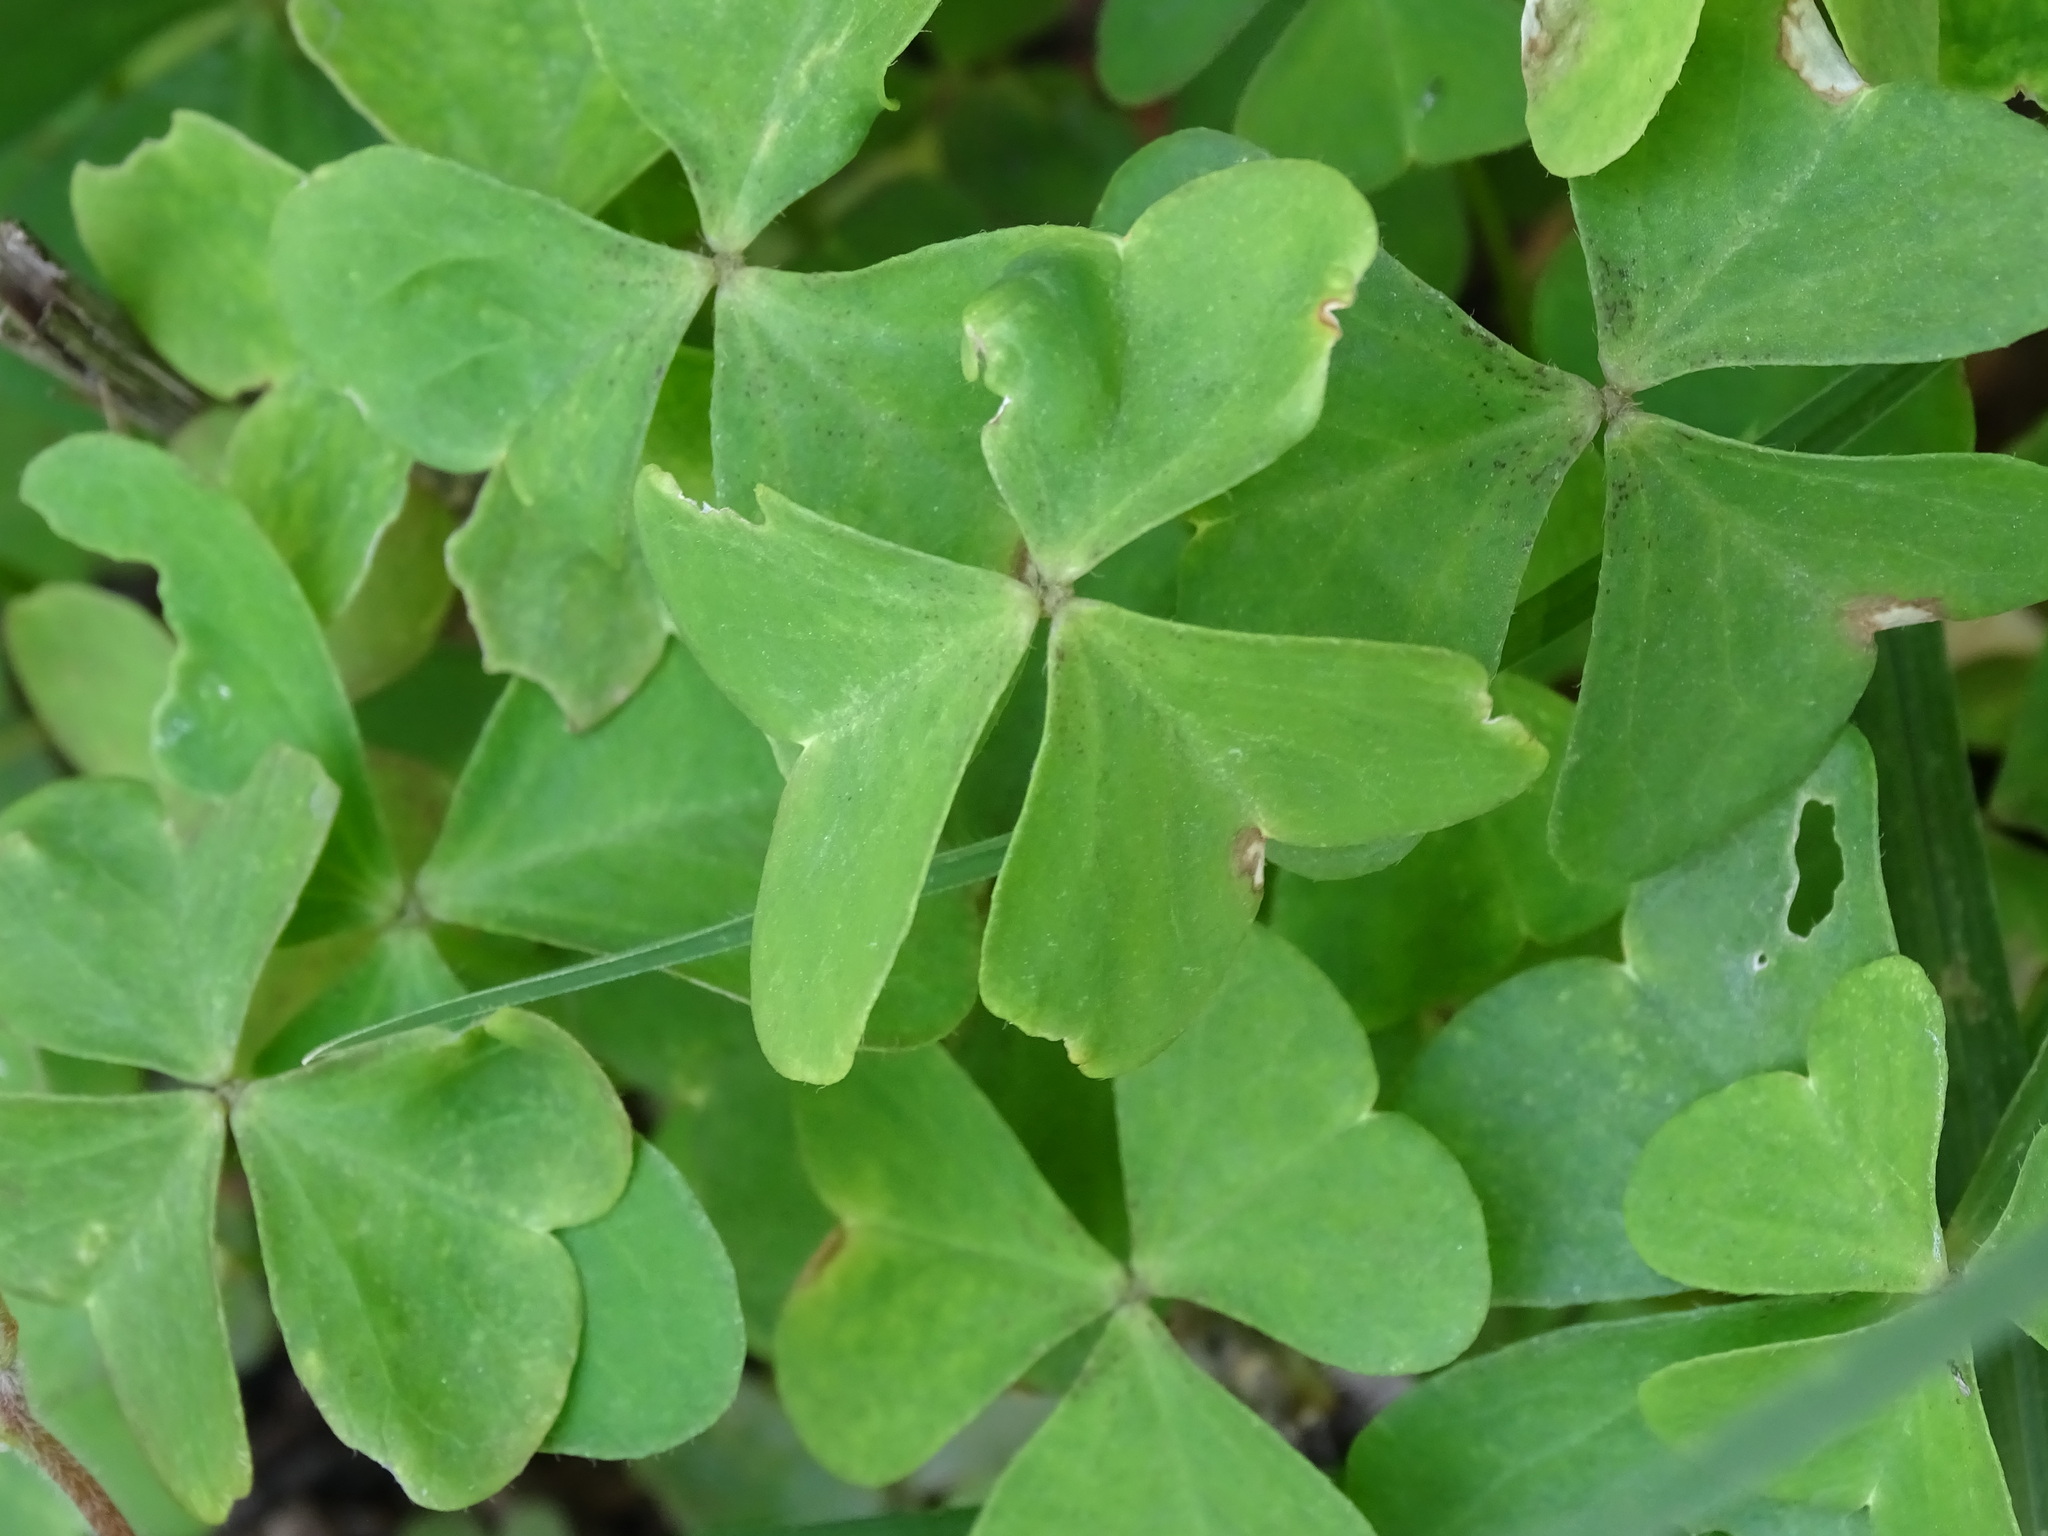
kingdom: Plantae
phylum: Tracheophyta
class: Magnoliopsida
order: Oxalidales
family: Oxalidaceae
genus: Oxalis
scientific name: Oxalis
